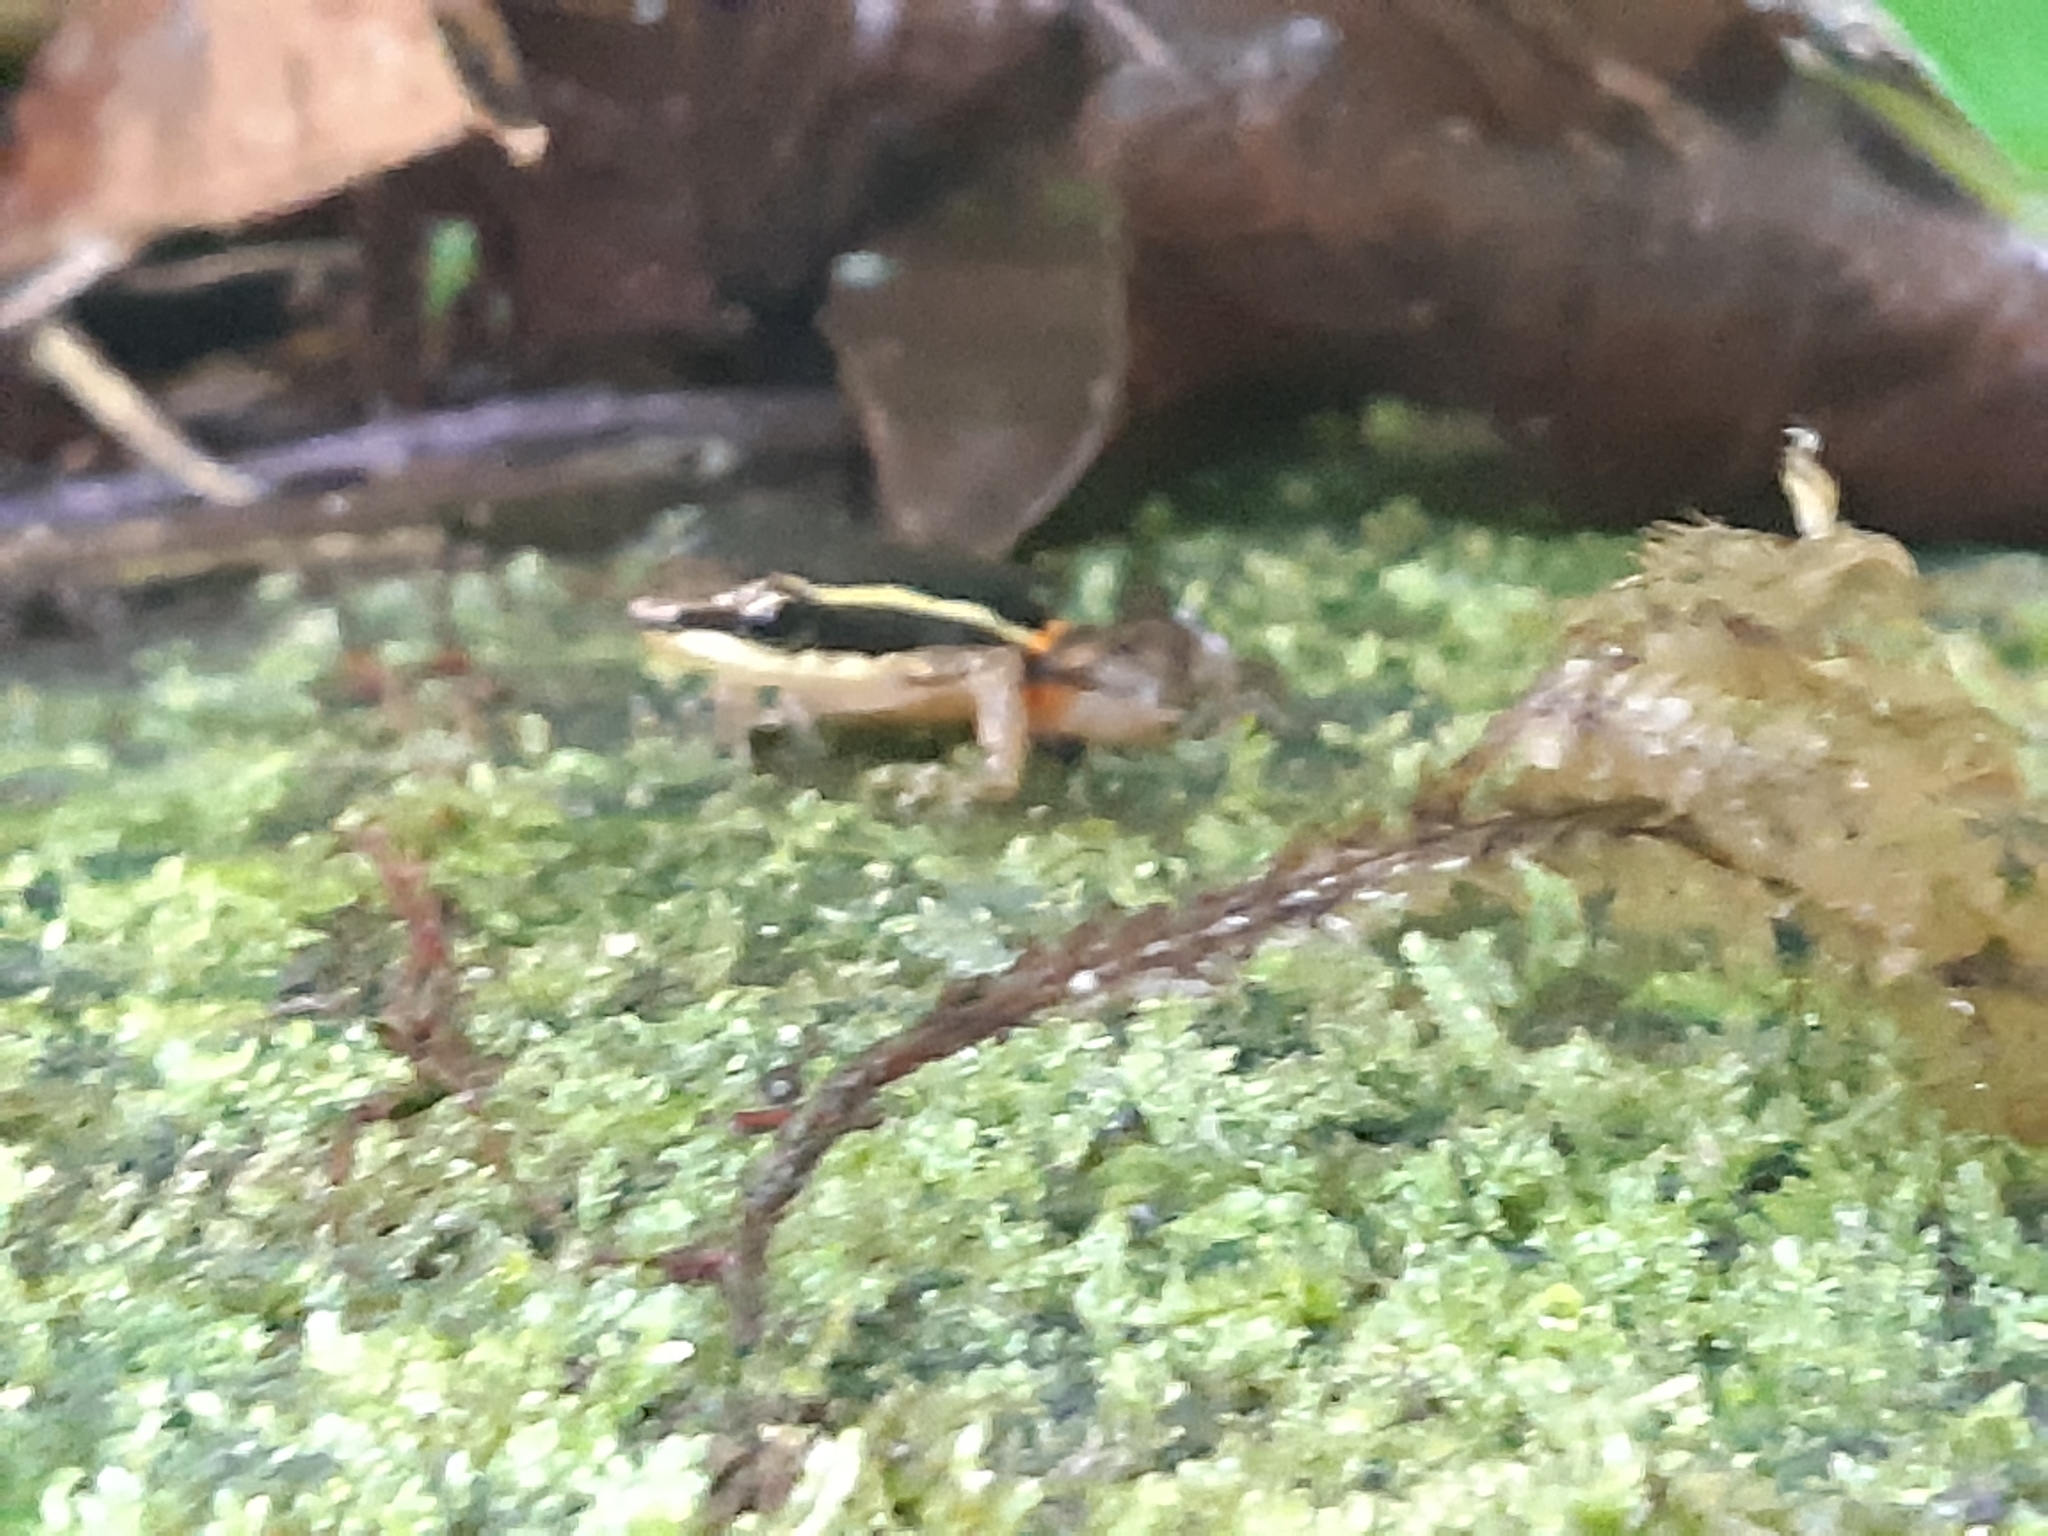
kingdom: Animalia
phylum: Chordata
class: Amphibia
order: Anura
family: Dendrobatidae
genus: Epipedobates
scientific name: Epipedobates machalilla
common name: Machalilla rocket frog
